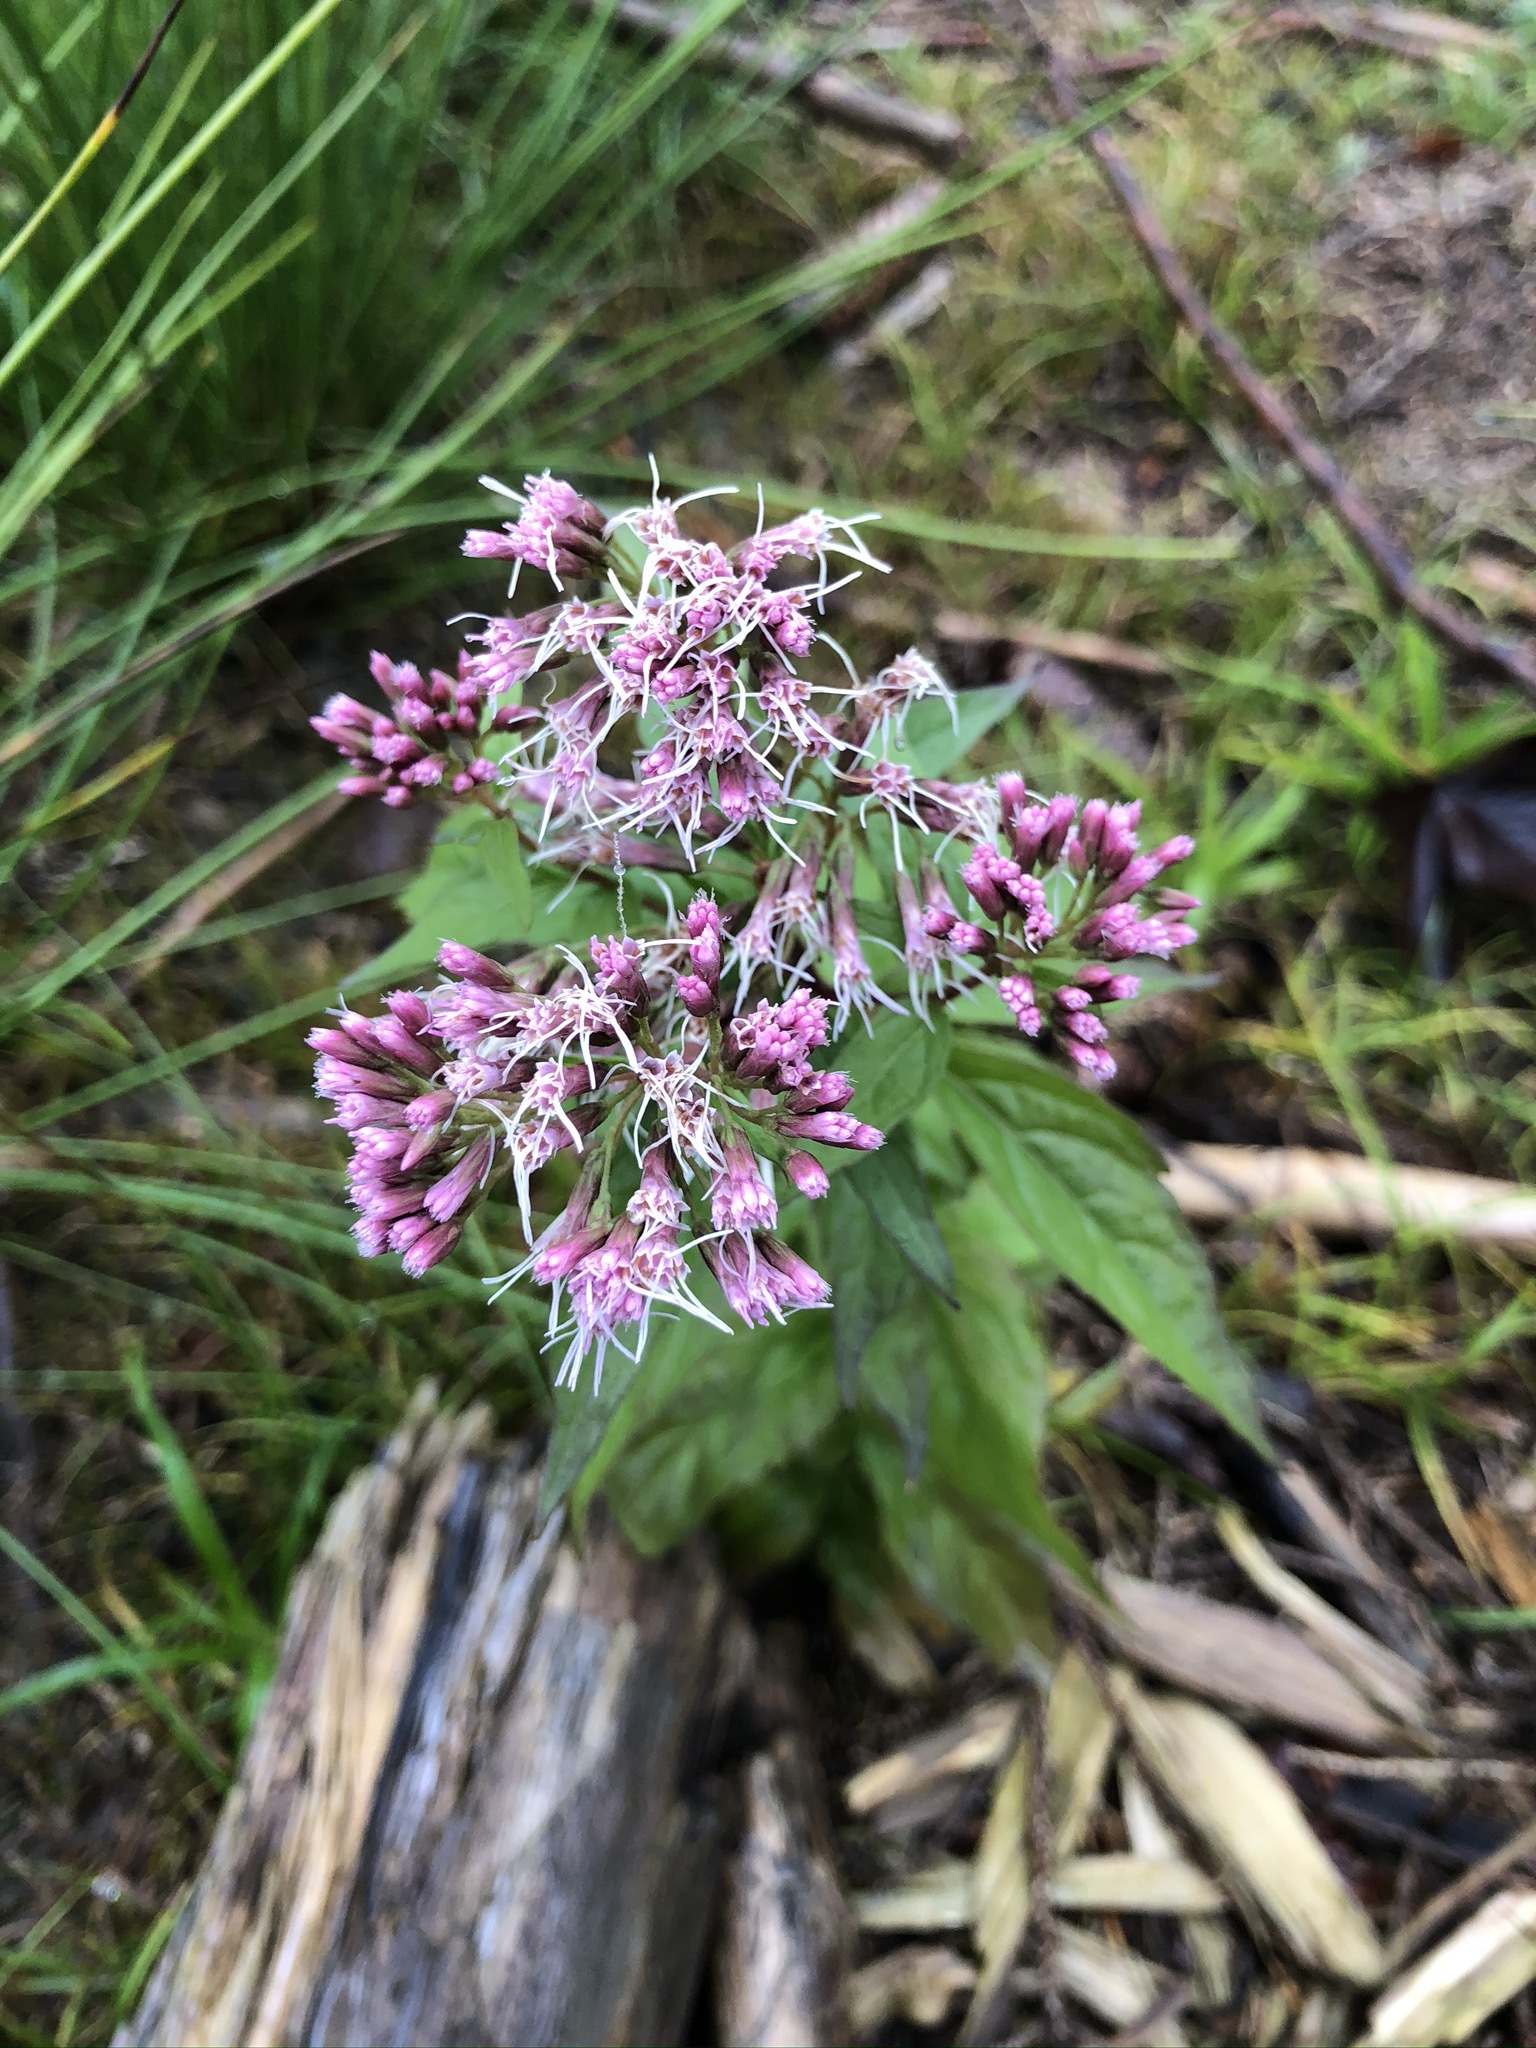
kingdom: Plantae
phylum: Tracheophyta
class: Magnoliopsida
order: Asterales
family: Asteraceae
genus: Eupatorium
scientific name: Eupatorium cannabinum
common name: Hemp-agrimony
